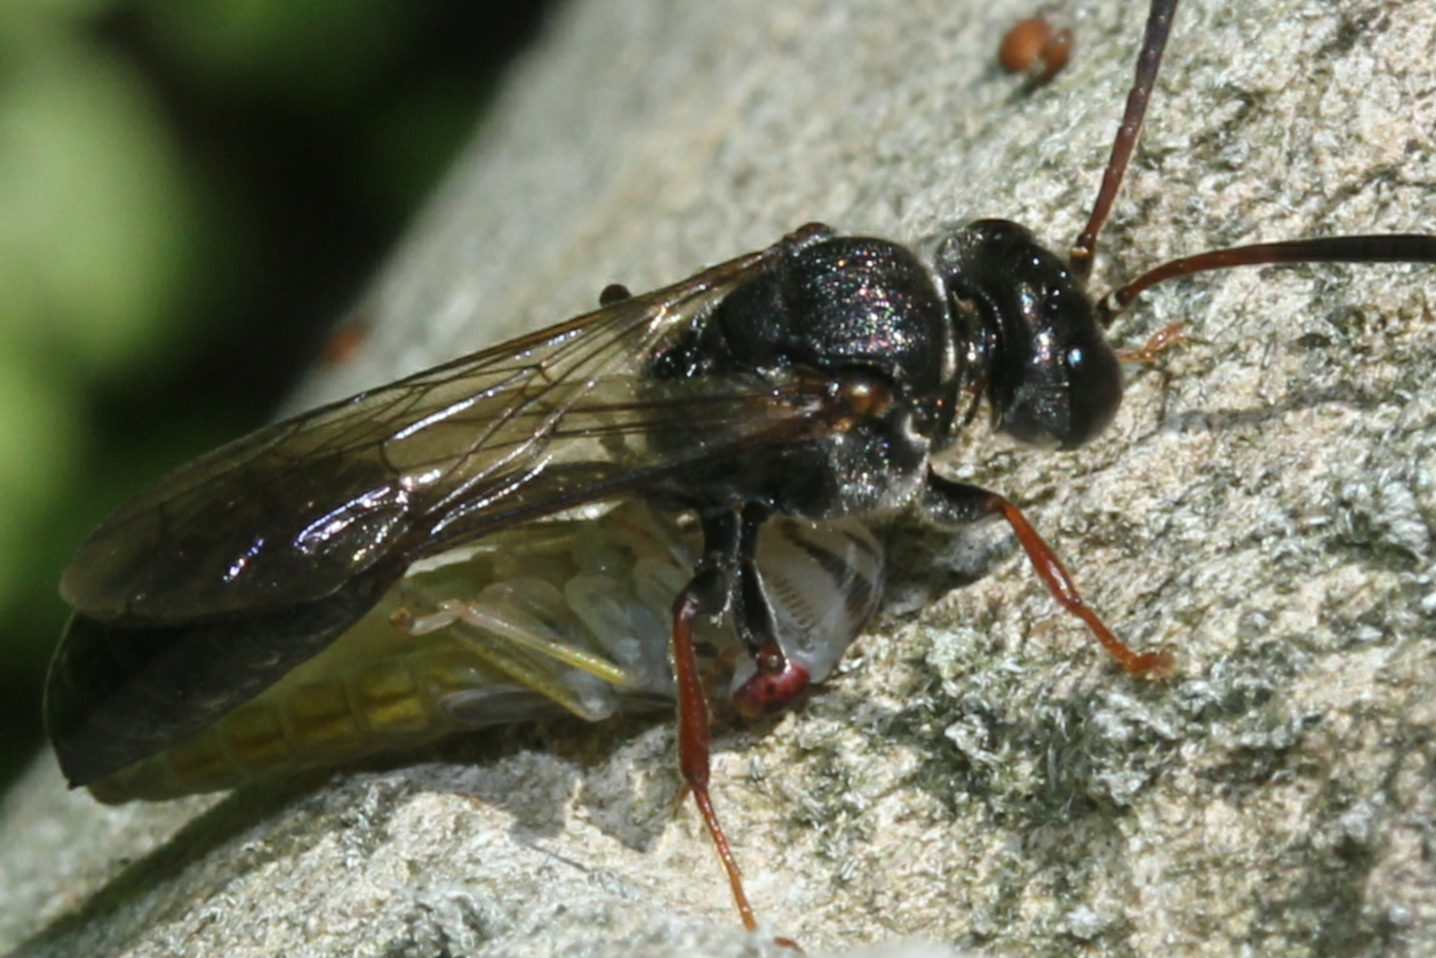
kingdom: Animalia
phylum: Arthropoda
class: Insecta
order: Hemiptera
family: Cicadellidae
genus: Oncometopia
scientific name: Oncometopia orbona
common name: Broad-headed sharpshooter
